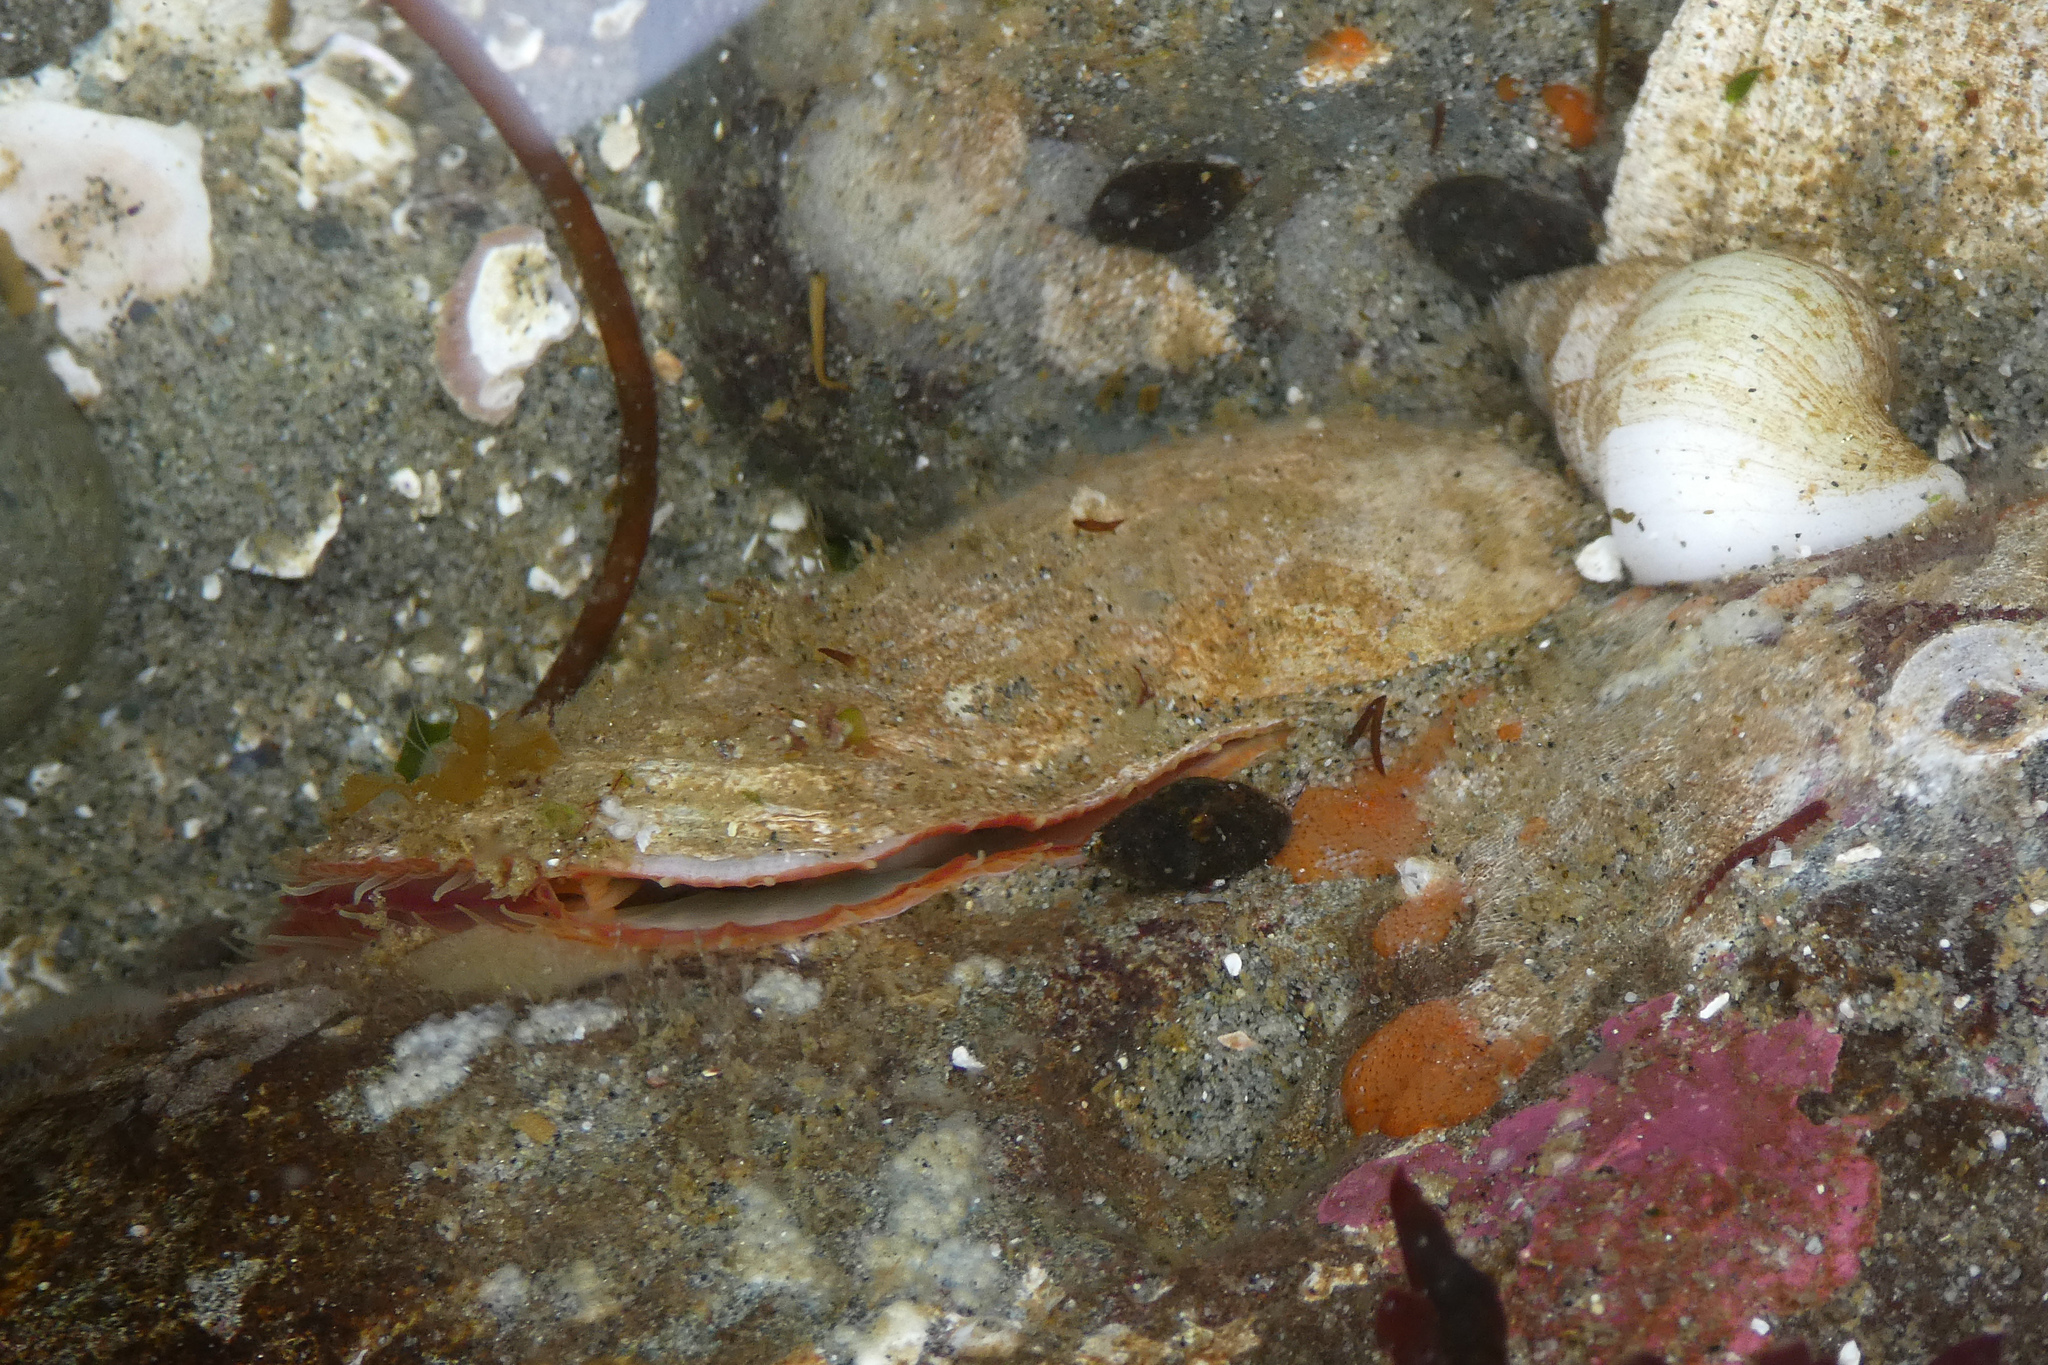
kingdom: Animalia
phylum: Mollusca
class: Bivalvia
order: Pectinida
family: Anomiidae
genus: Pododesmus
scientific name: Pododesmus macrochisma
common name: Alaska jingle
